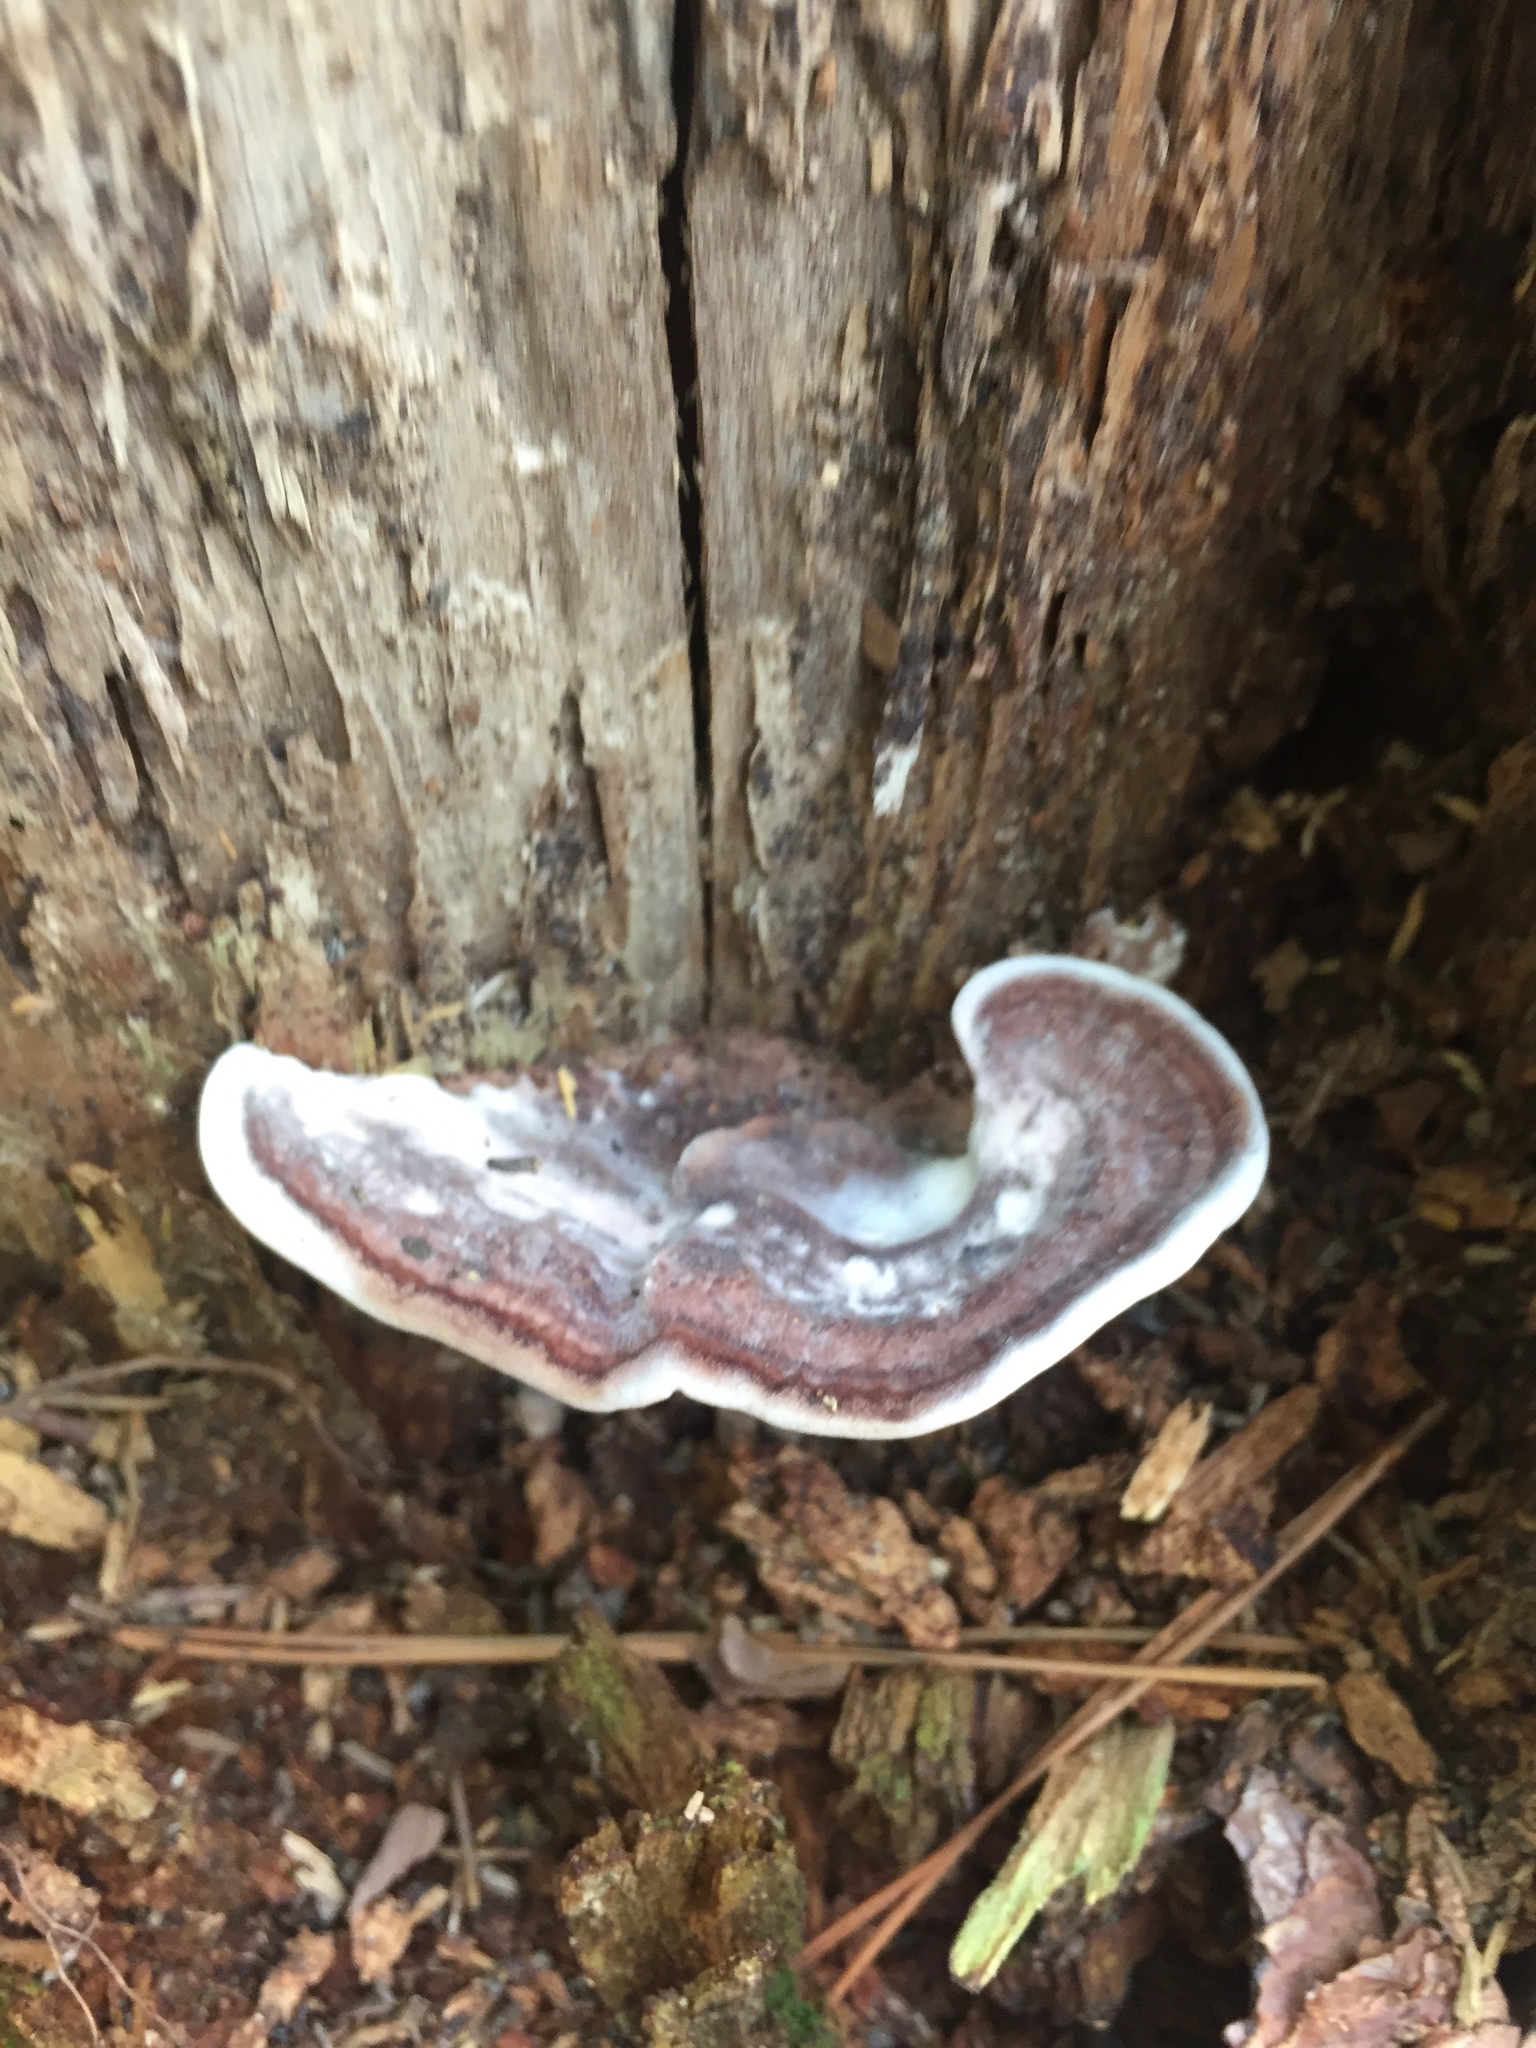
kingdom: Fungi
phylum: Basidiomycota
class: Agaricomycetes
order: Polyporales
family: Steccherinaceae
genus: Nigroporus
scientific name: Nigroporus vinosus
